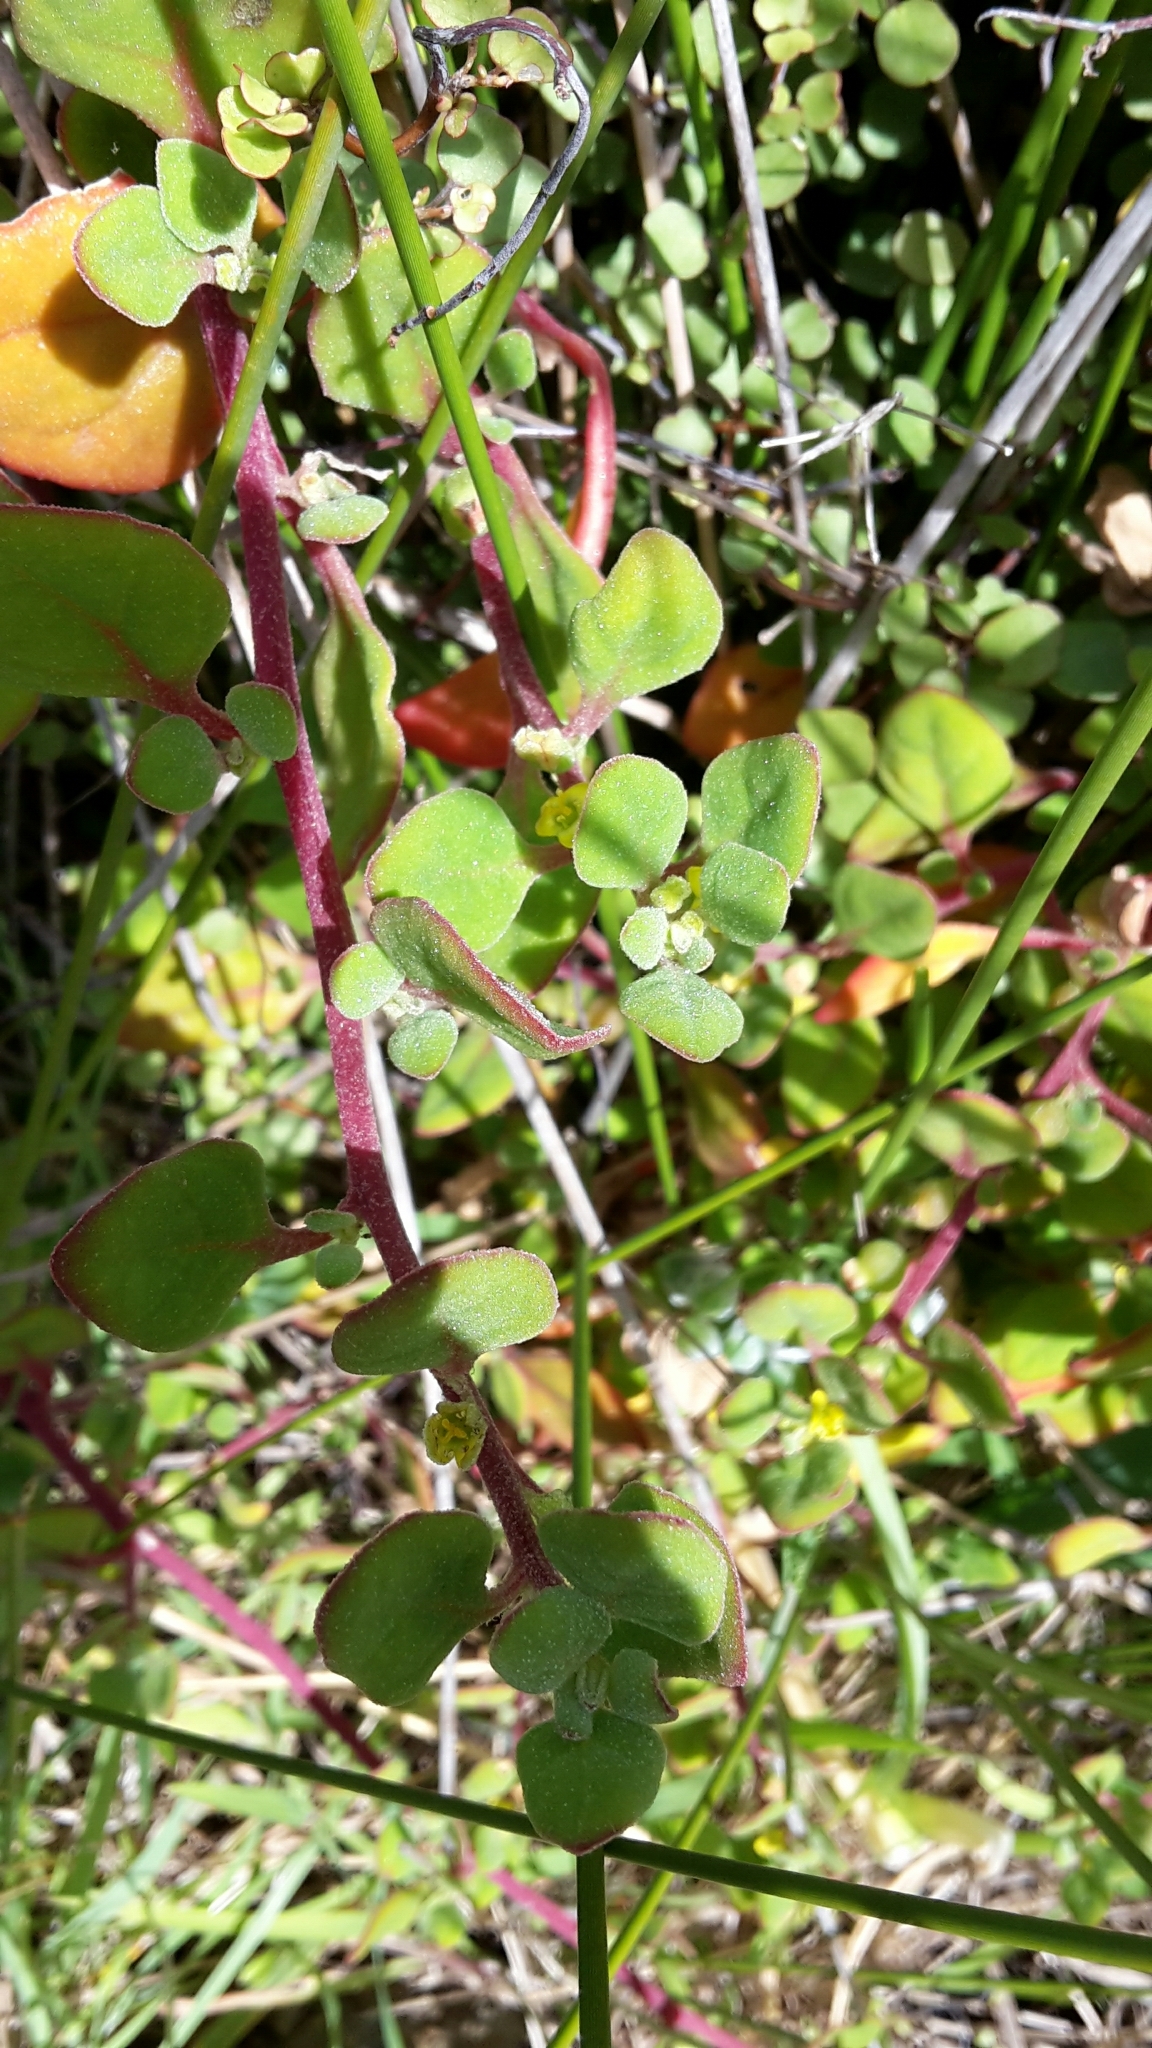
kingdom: Plantae
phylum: Tracheophyta
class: Magnoliopsida
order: Caryophyllales
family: Aizoaceae
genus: Tetragonia
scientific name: Tetragonia implexicoma
